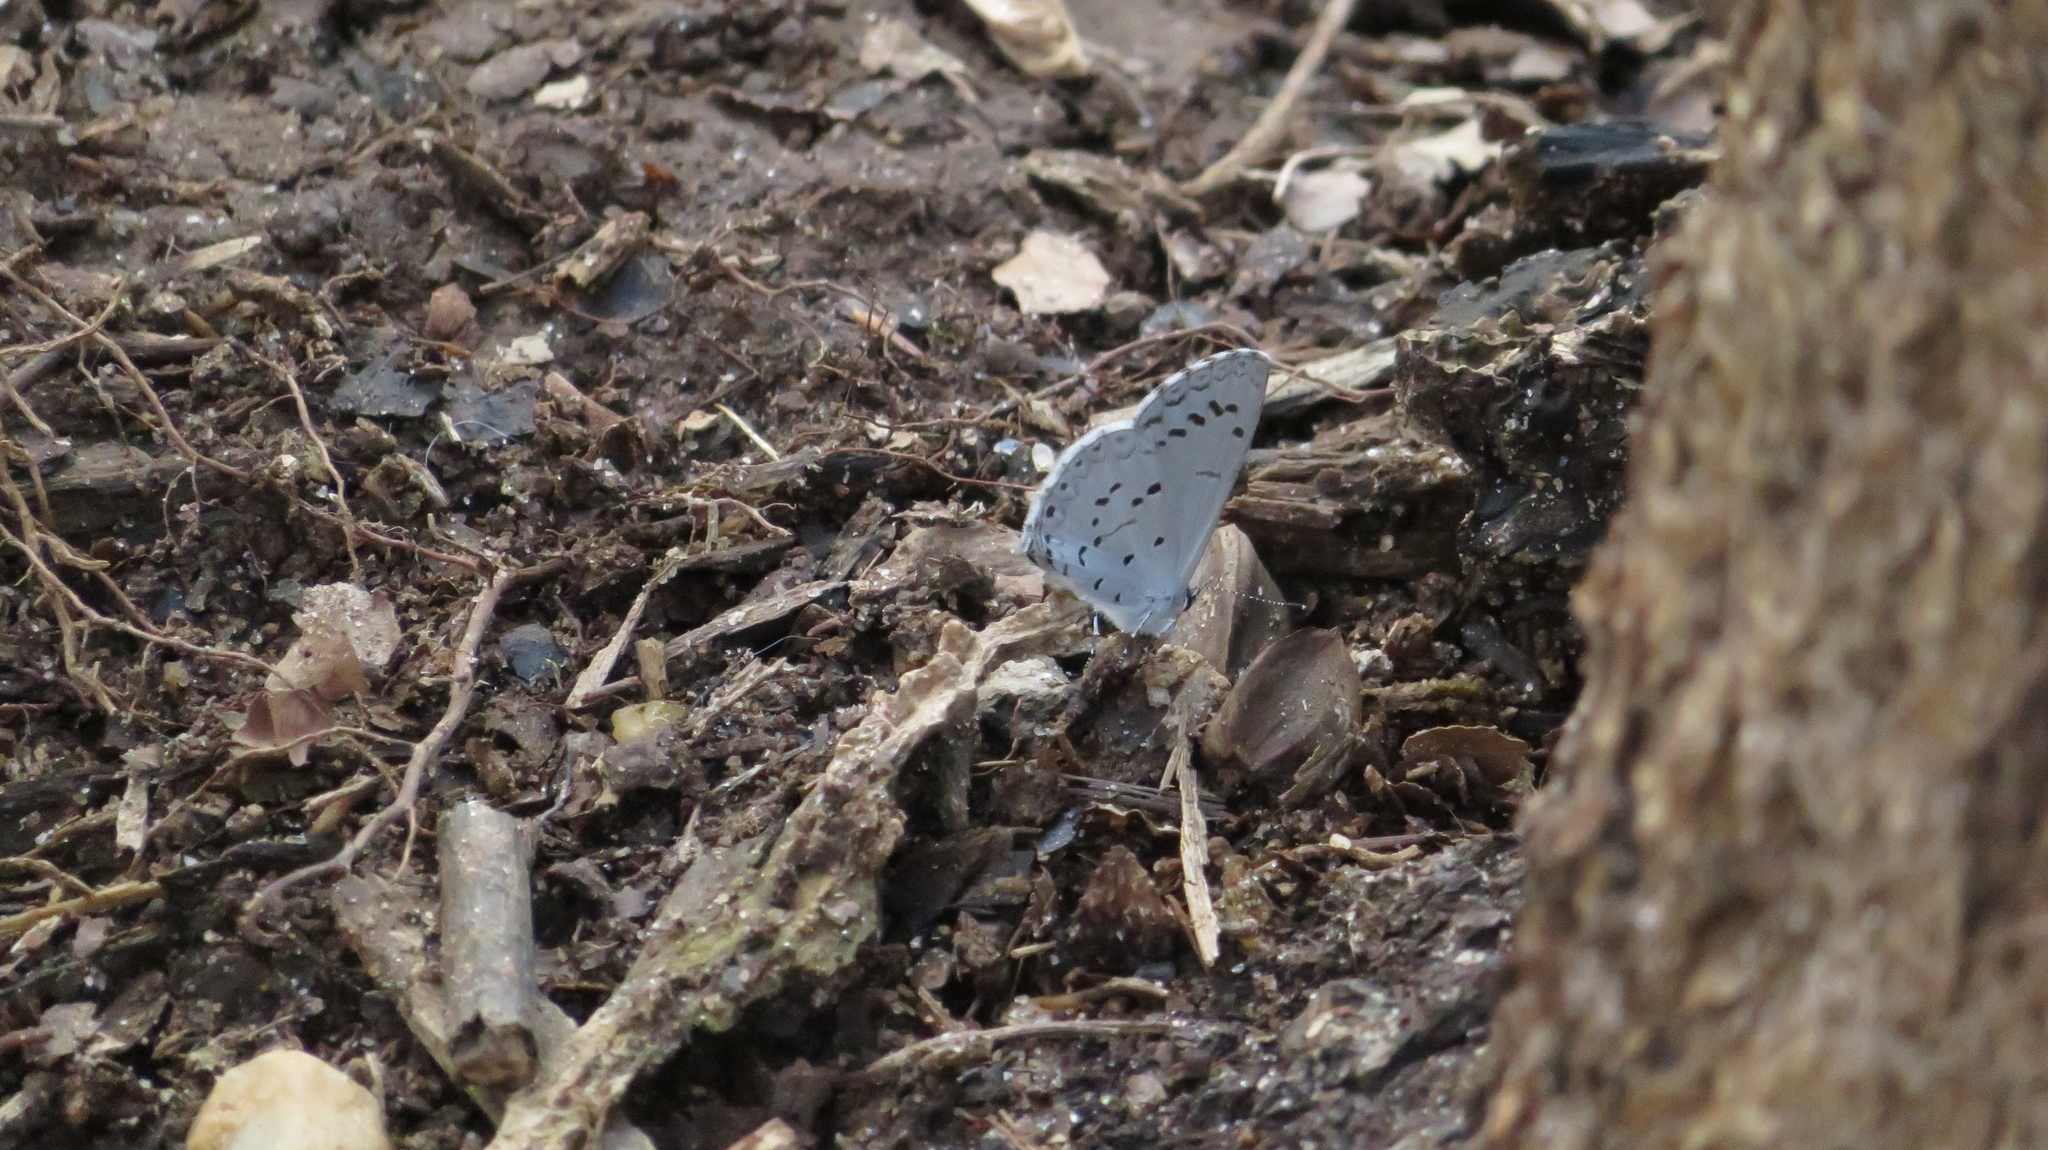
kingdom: Animalia
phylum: Arthropoda
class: Insecta
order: Lepidoptera
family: Lycaenidae
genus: Cyaniris
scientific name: Cyaniris neglecta
